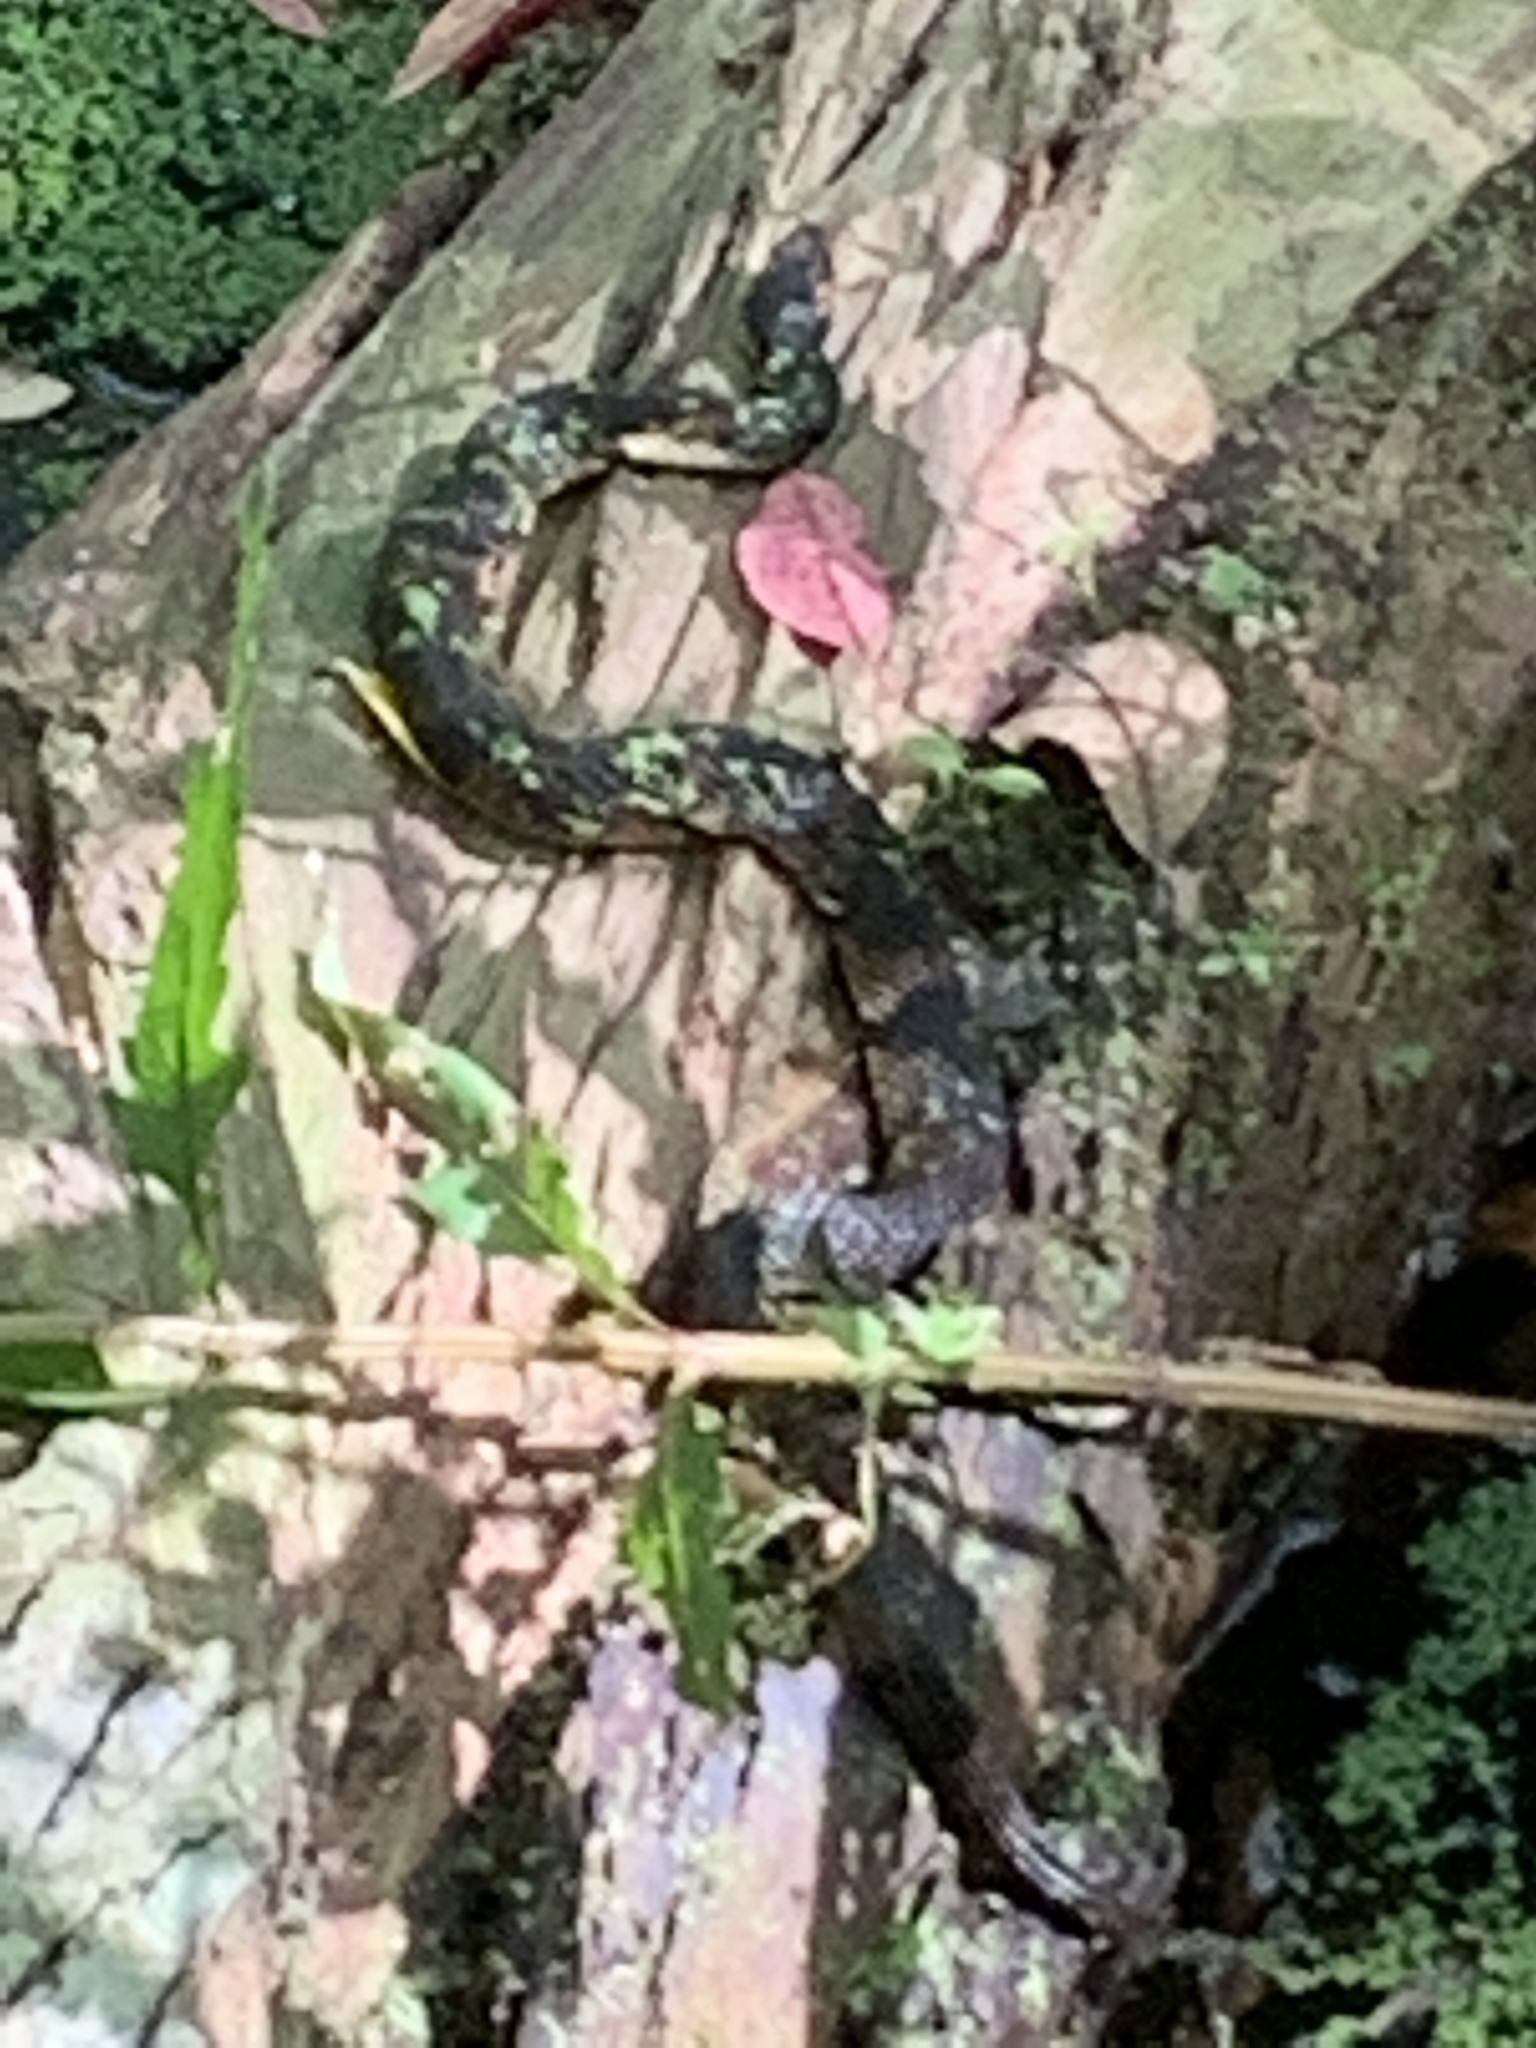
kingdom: Animalia
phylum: Chordata
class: Squamata
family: Colubridae
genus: Nerodia
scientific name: Nerodia fasciata
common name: Southern water snake
